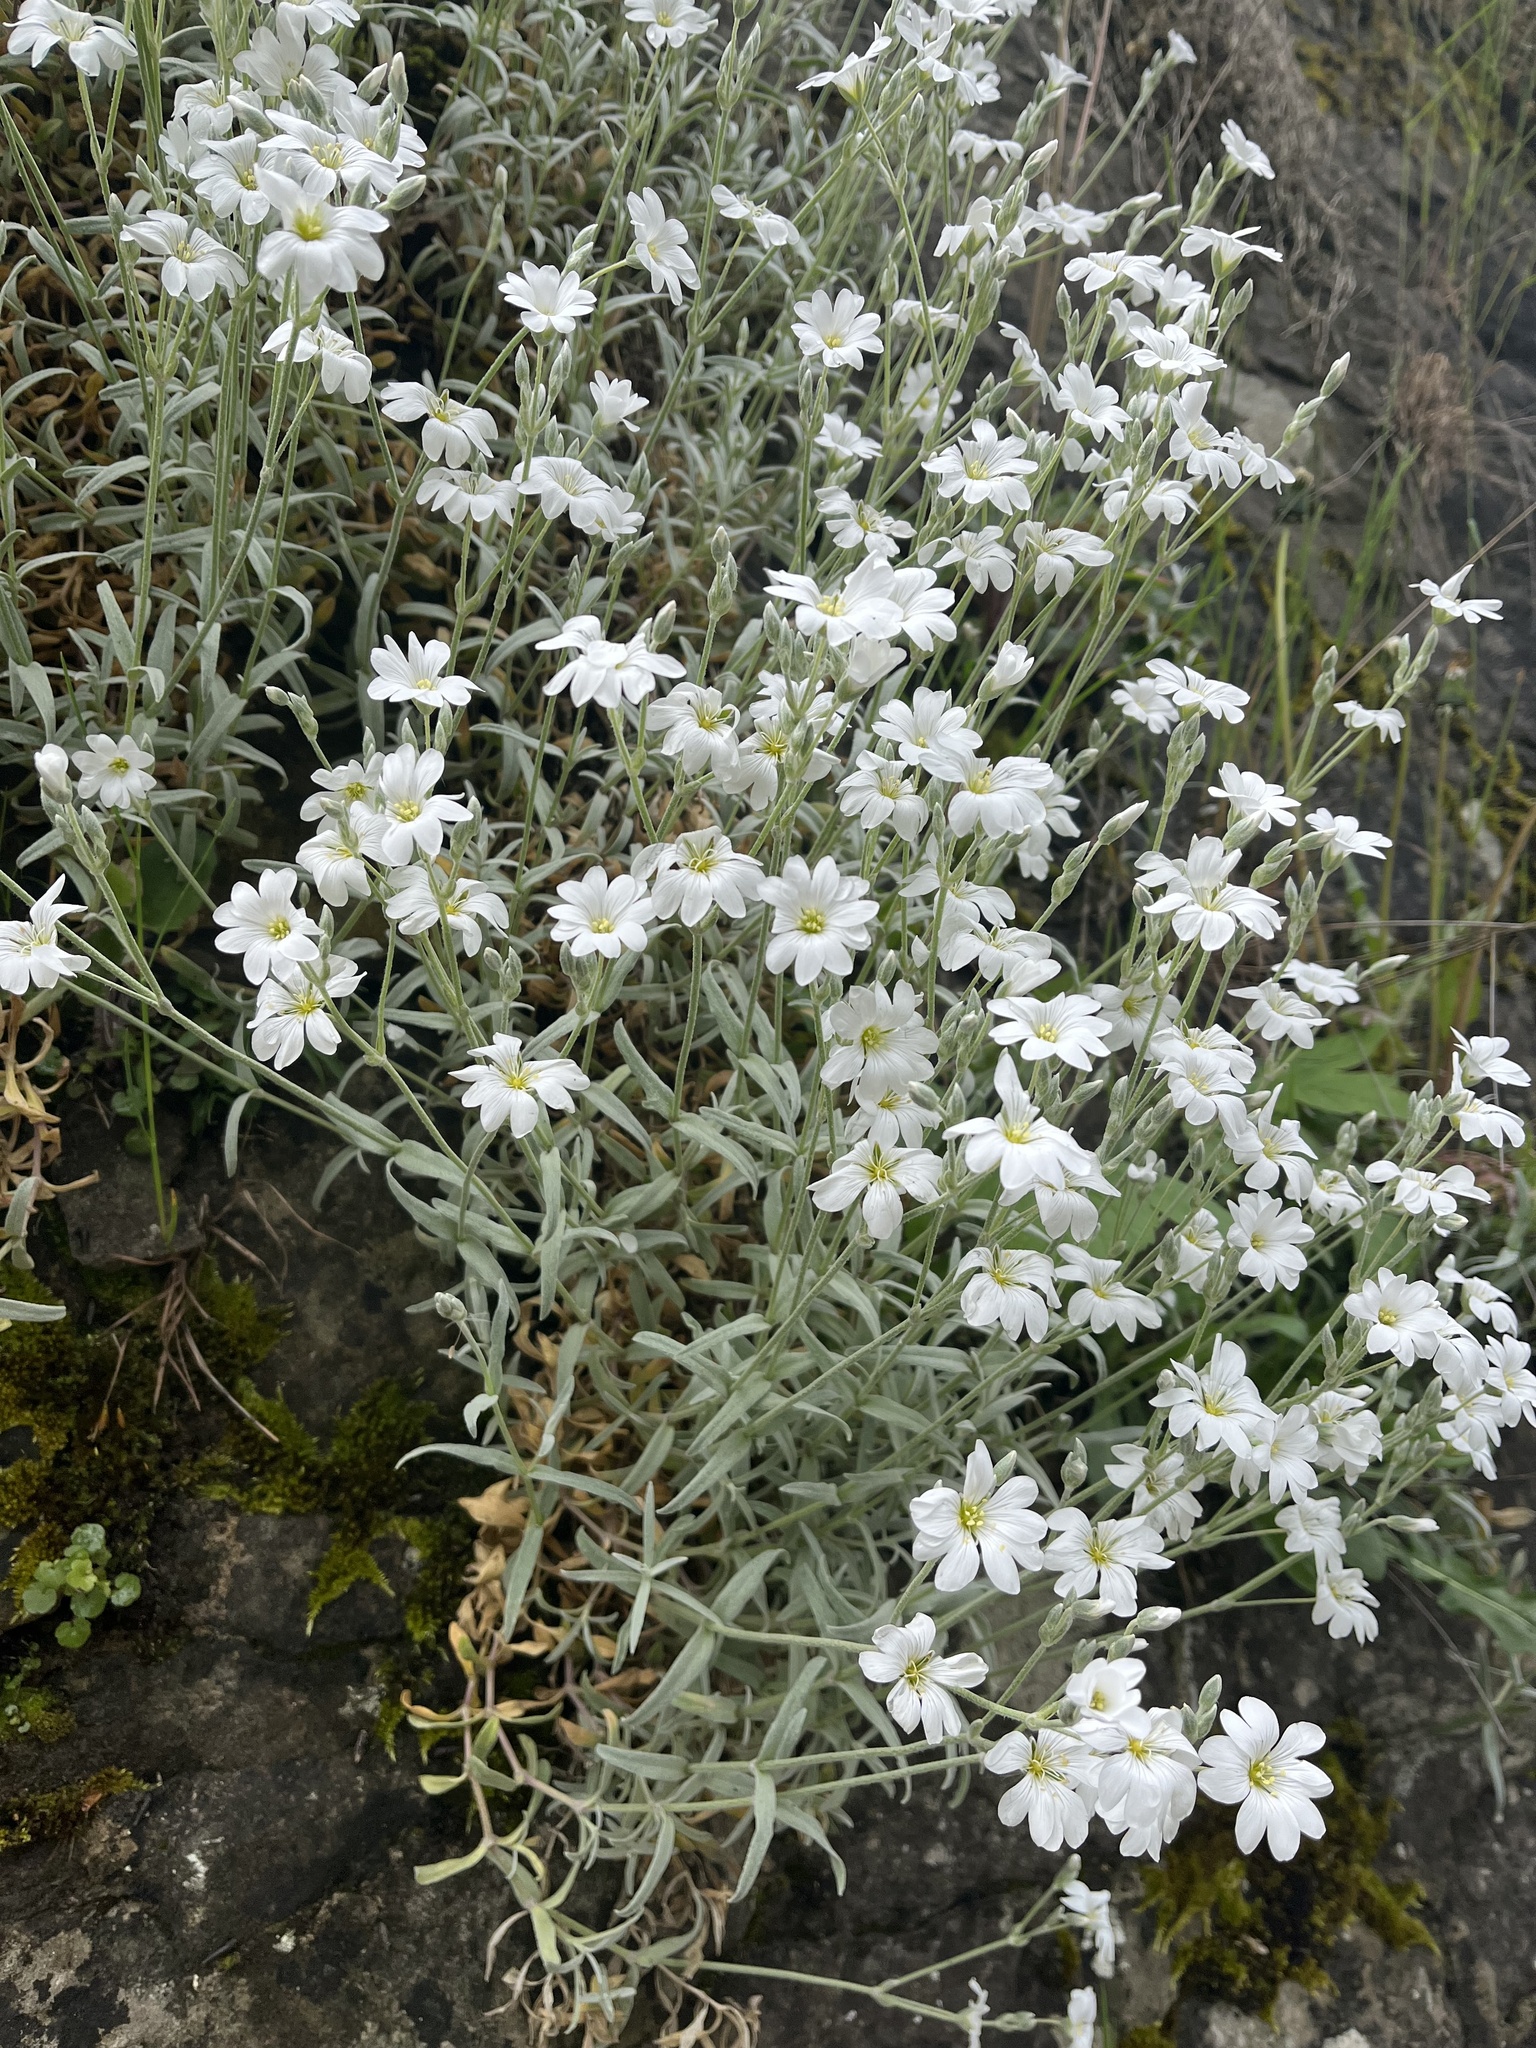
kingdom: Plantae
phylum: Tracheophyta
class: Magnoliopsida
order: Caryophyllales
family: Caryophyllaceae
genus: Cerastium
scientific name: Cerastium tomentosum
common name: Snow-in-summer
